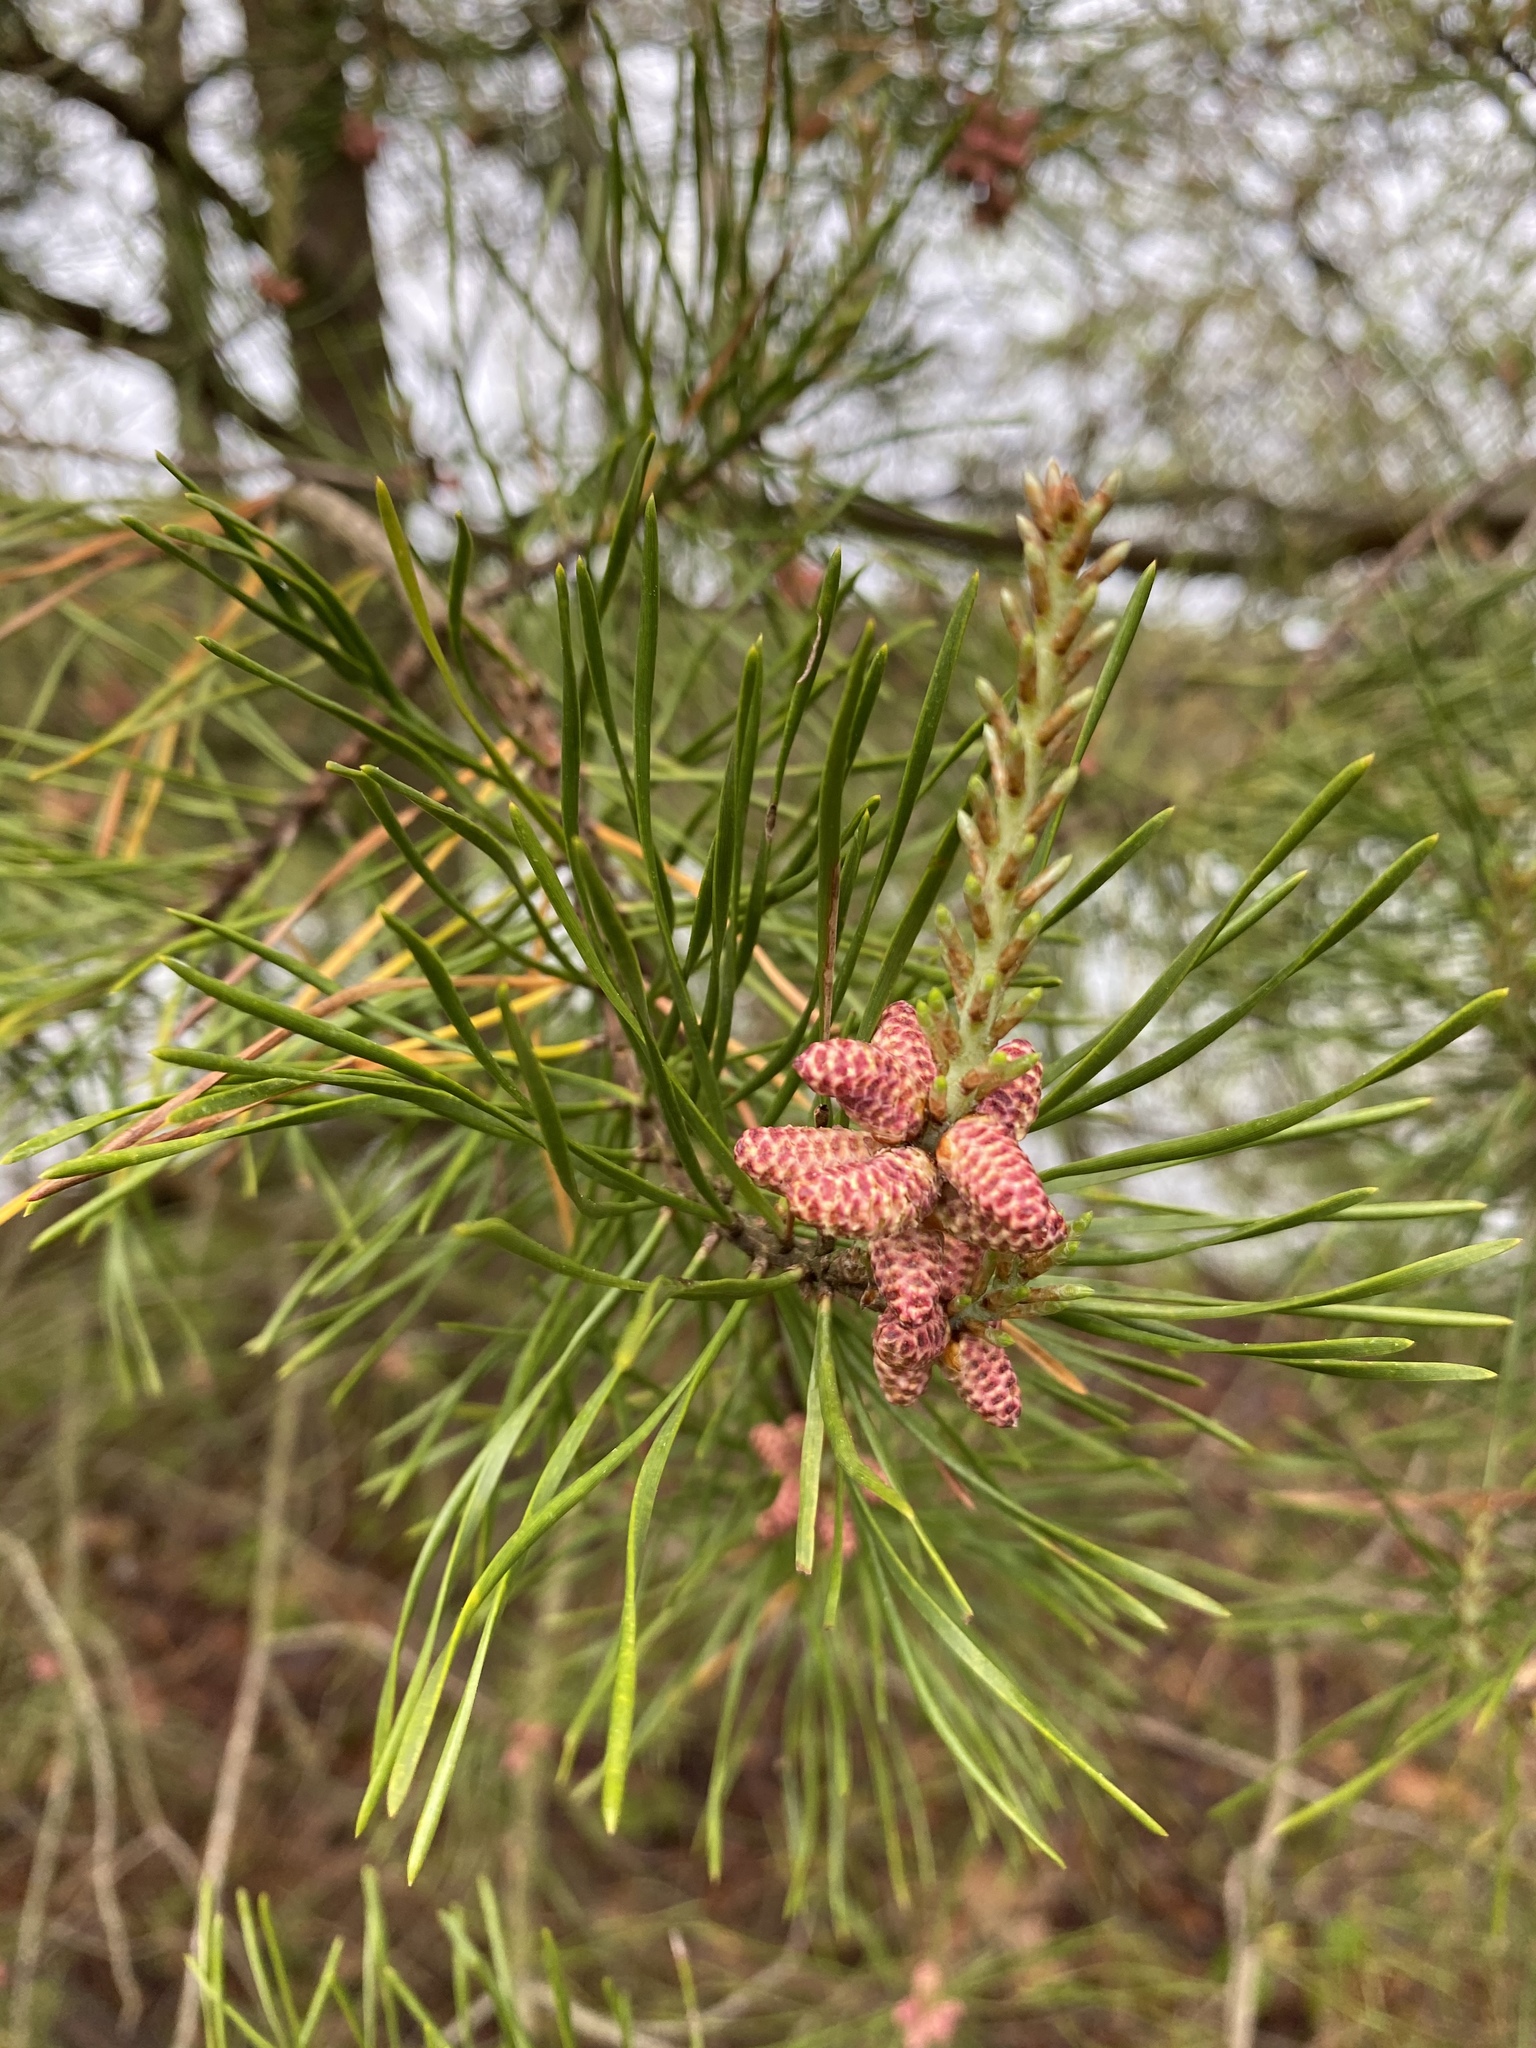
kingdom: Plantae
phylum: Tracheophyta
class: Pinopsida
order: Pinales
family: Pinaceae
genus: Pinus
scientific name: Pinus virginiana
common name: Scrub pine
